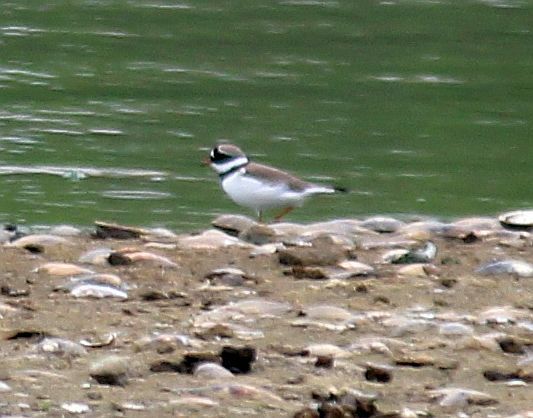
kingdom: Animalia
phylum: Chordata
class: Aves
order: Charadriiformes
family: Charadriidae
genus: Charadrius
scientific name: Charadrius hiaticula
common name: Common ringed plover
